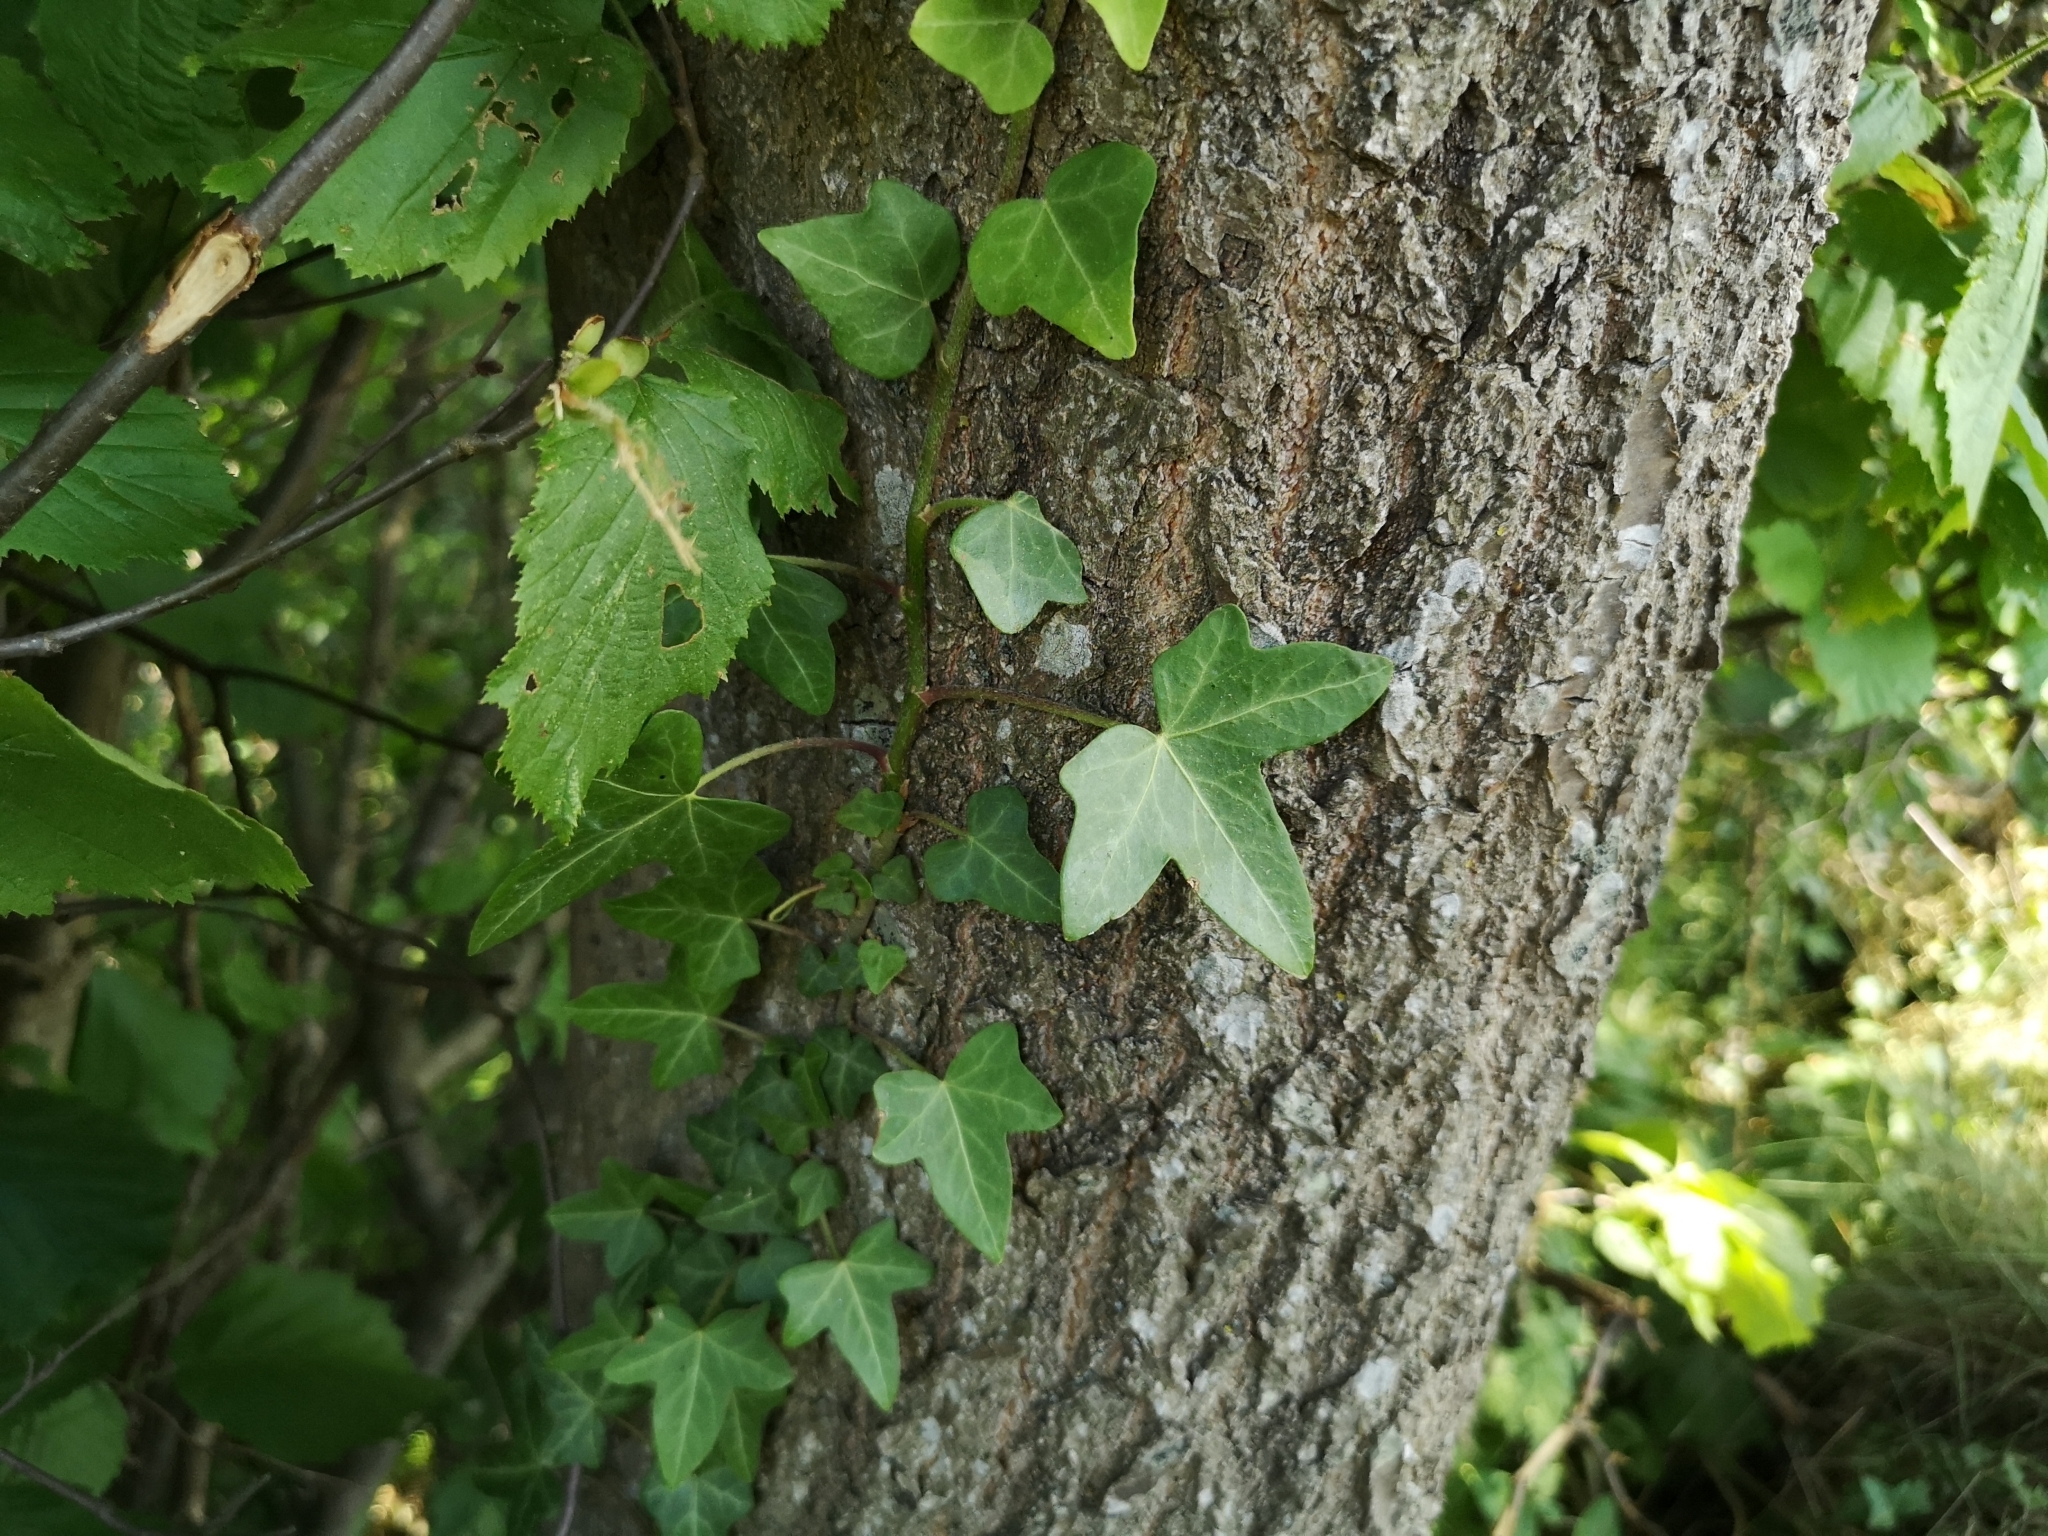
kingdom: Plantae
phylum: Tracheophyta
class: Magnoliopsida
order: Apiales
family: Araliaceae
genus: Hedera
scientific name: Hedera helix
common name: Ivy
